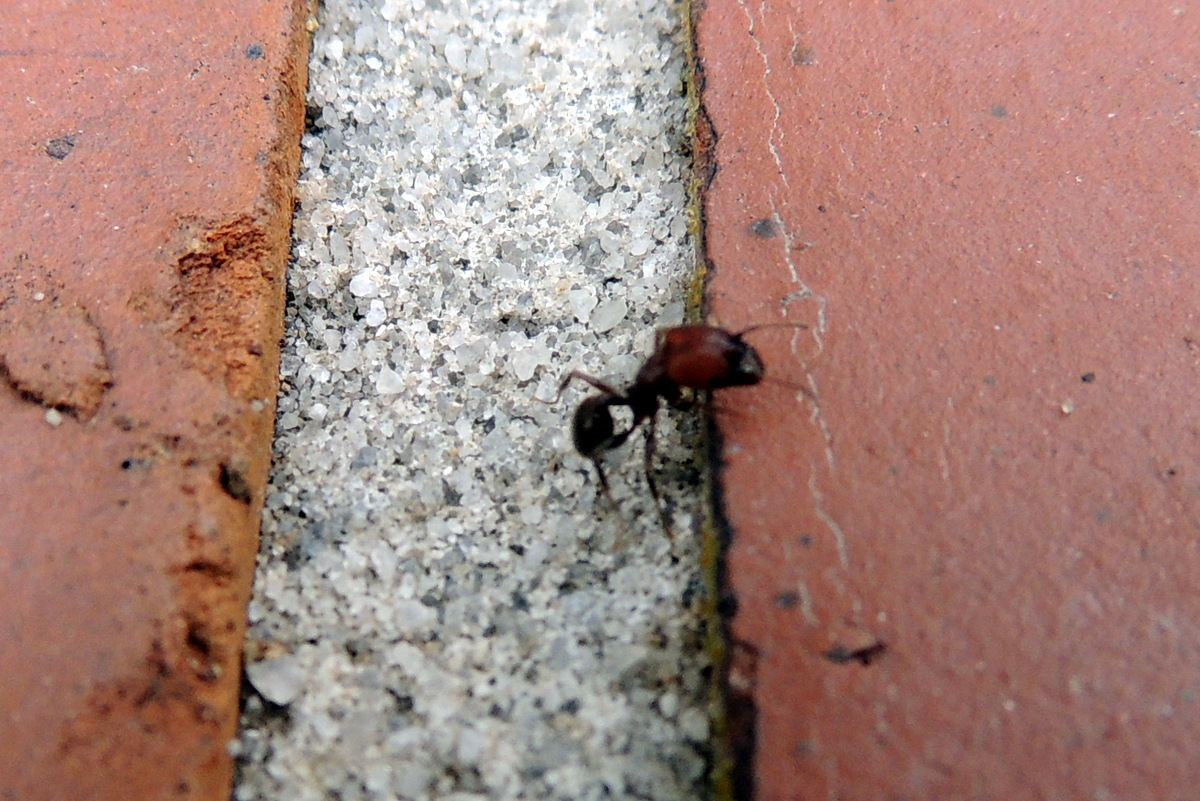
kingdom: Animalia
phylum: Arthropoda
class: Insecta
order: Hymenoptera
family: Formicidae
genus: Pheidole
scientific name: Pheidole obscurithorax
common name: Obscure big-headed ant
